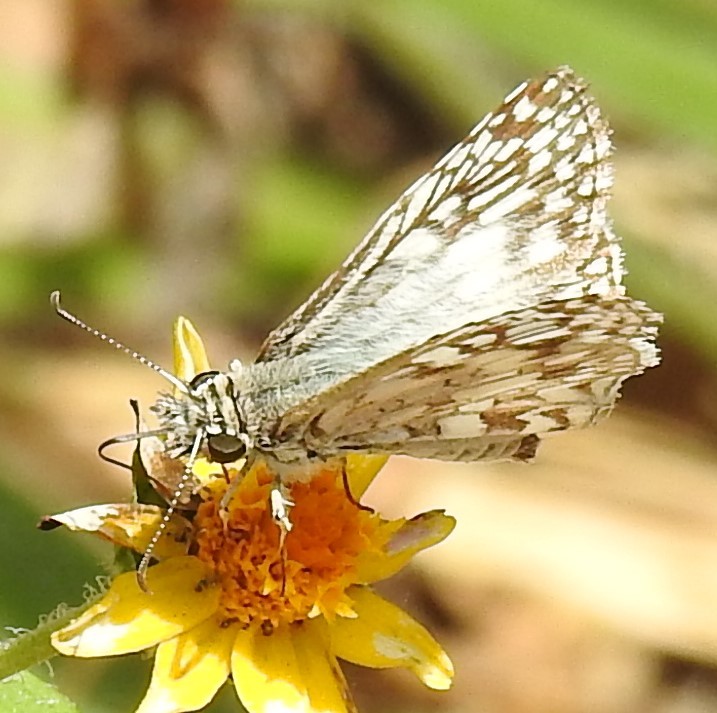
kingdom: Animalia
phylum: Arthropoda
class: Insecta
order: Lepidoptera
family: Hesperiidae
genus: Pyrgus
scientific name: Pyrgus oileus
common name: Tropical checkered-skipper
